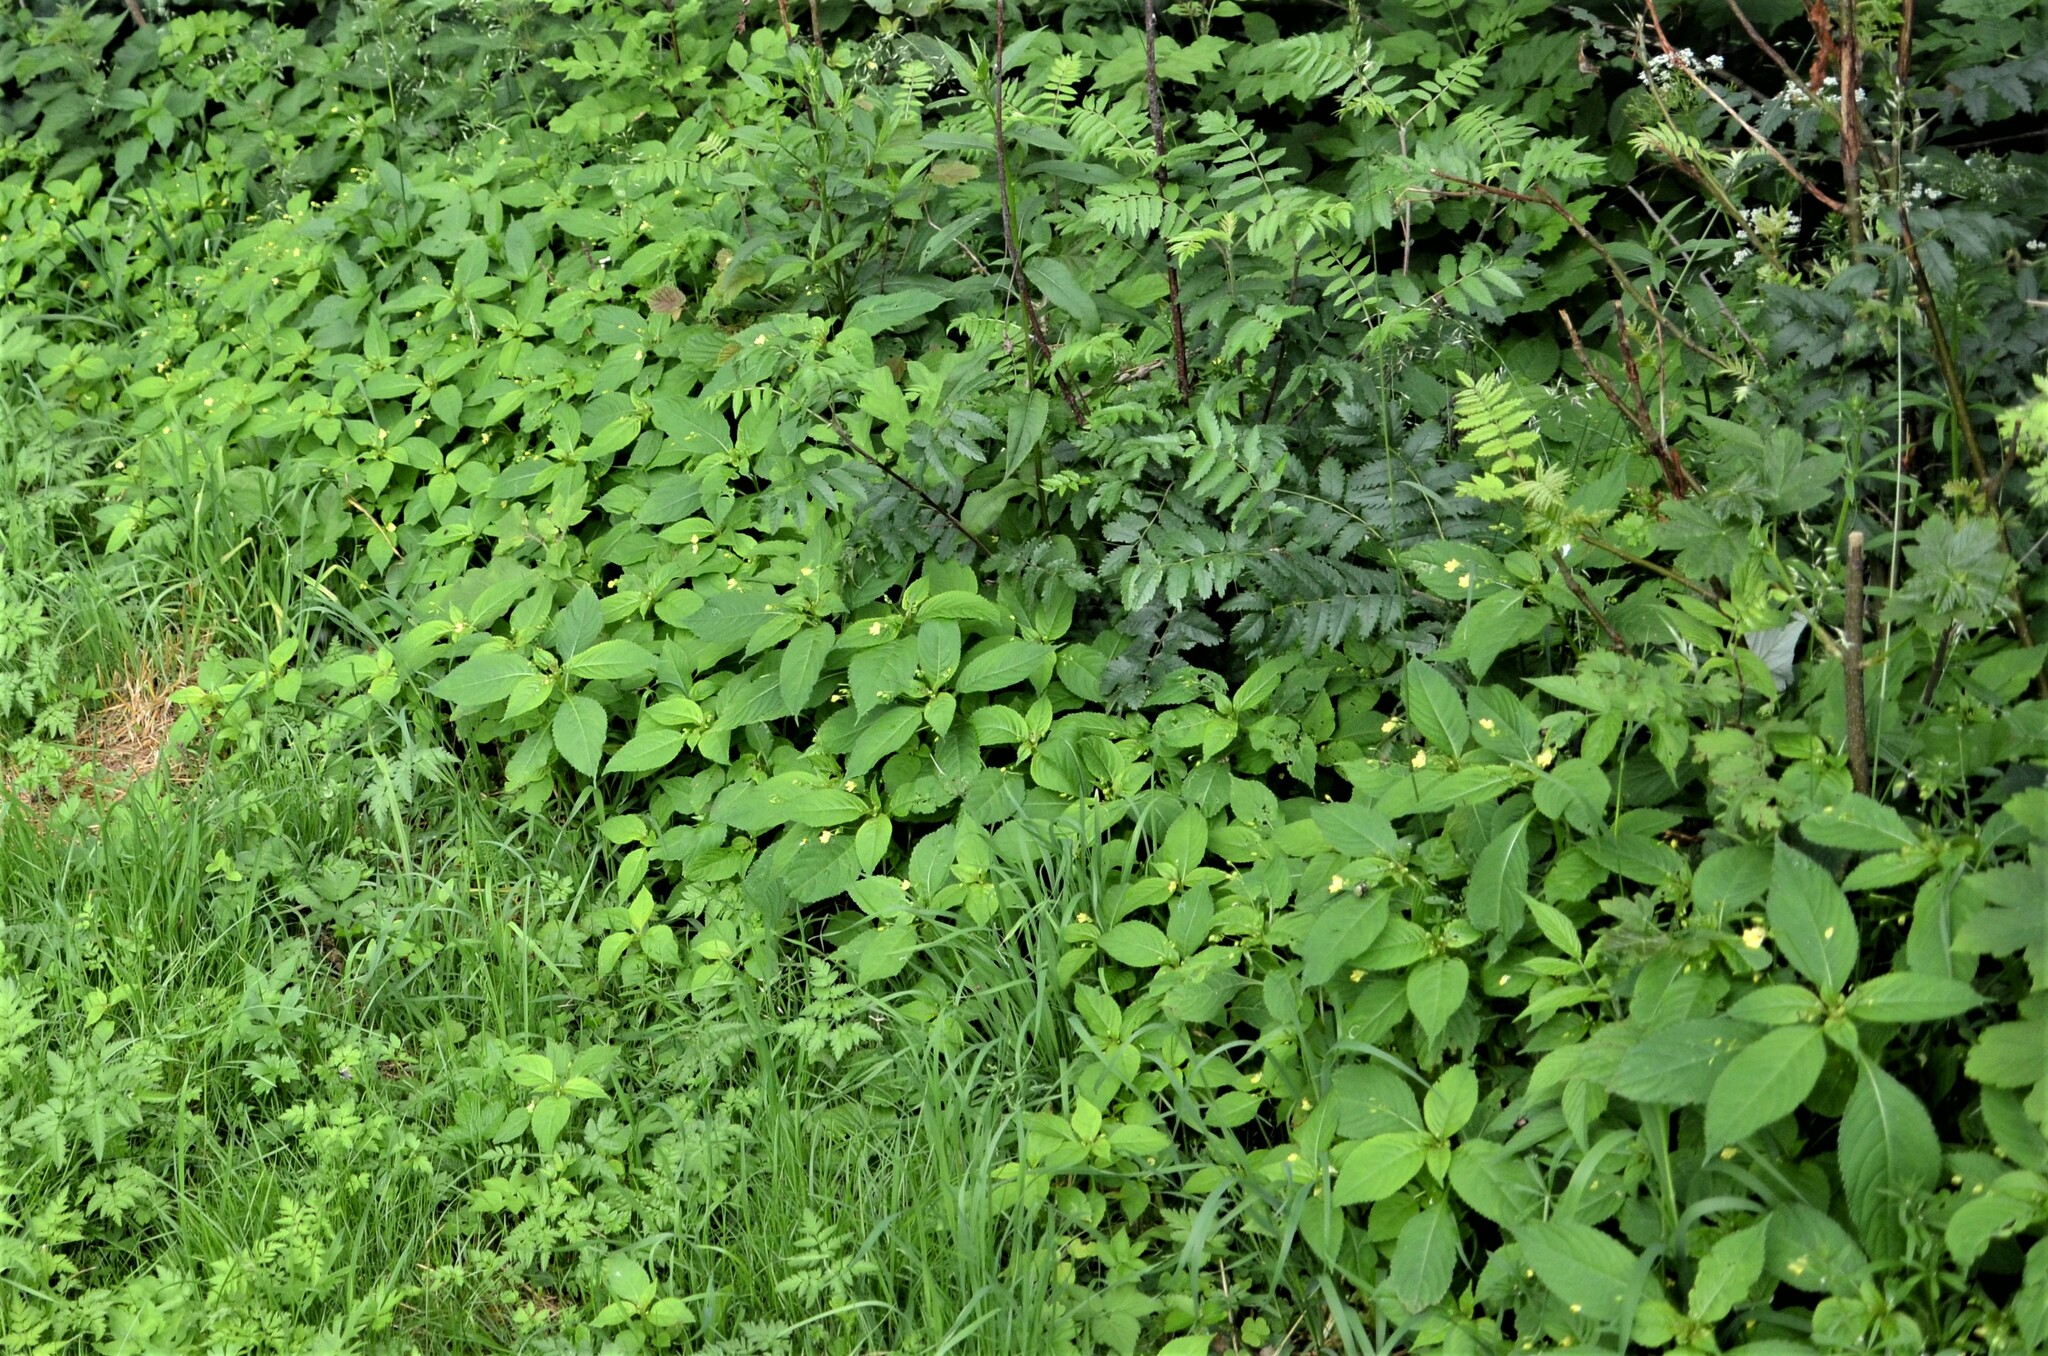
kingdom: Plantae
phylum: Tracheophyta
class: Magnoliopsida
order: Ericales
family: Balsaminaceae
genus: Impatiens
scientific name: Impatiens parviflora
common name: Small balsam
